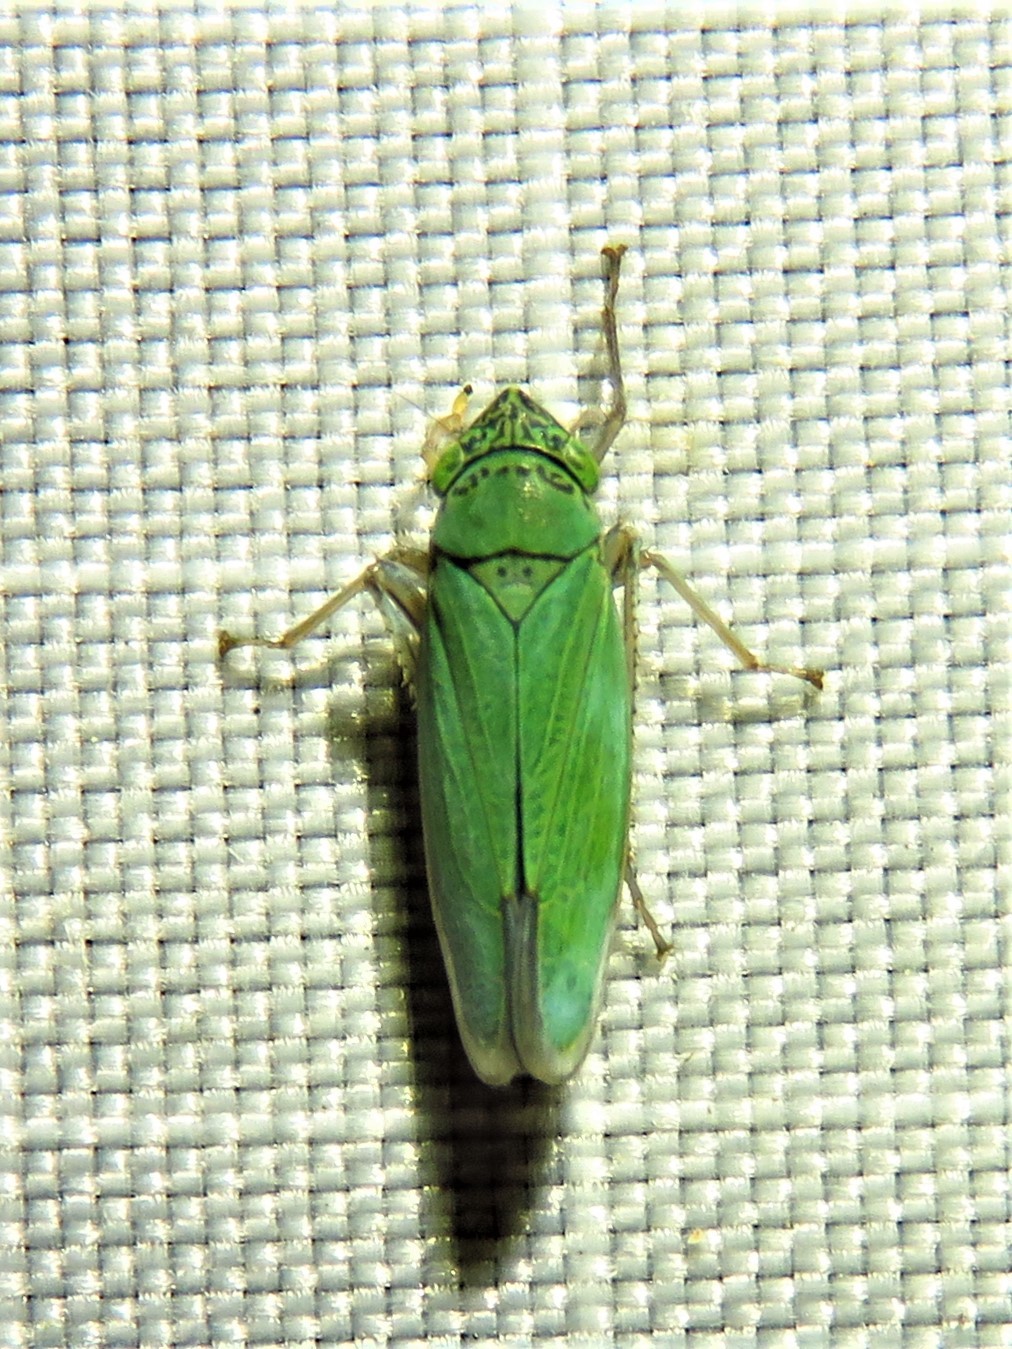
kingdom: Animalia
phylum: Arthropoda
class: Insecta
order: Hemiptera
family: Cicadellidae
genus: Draeculacephala
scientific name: Draeculacephala inscripta
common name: Leafhopper
